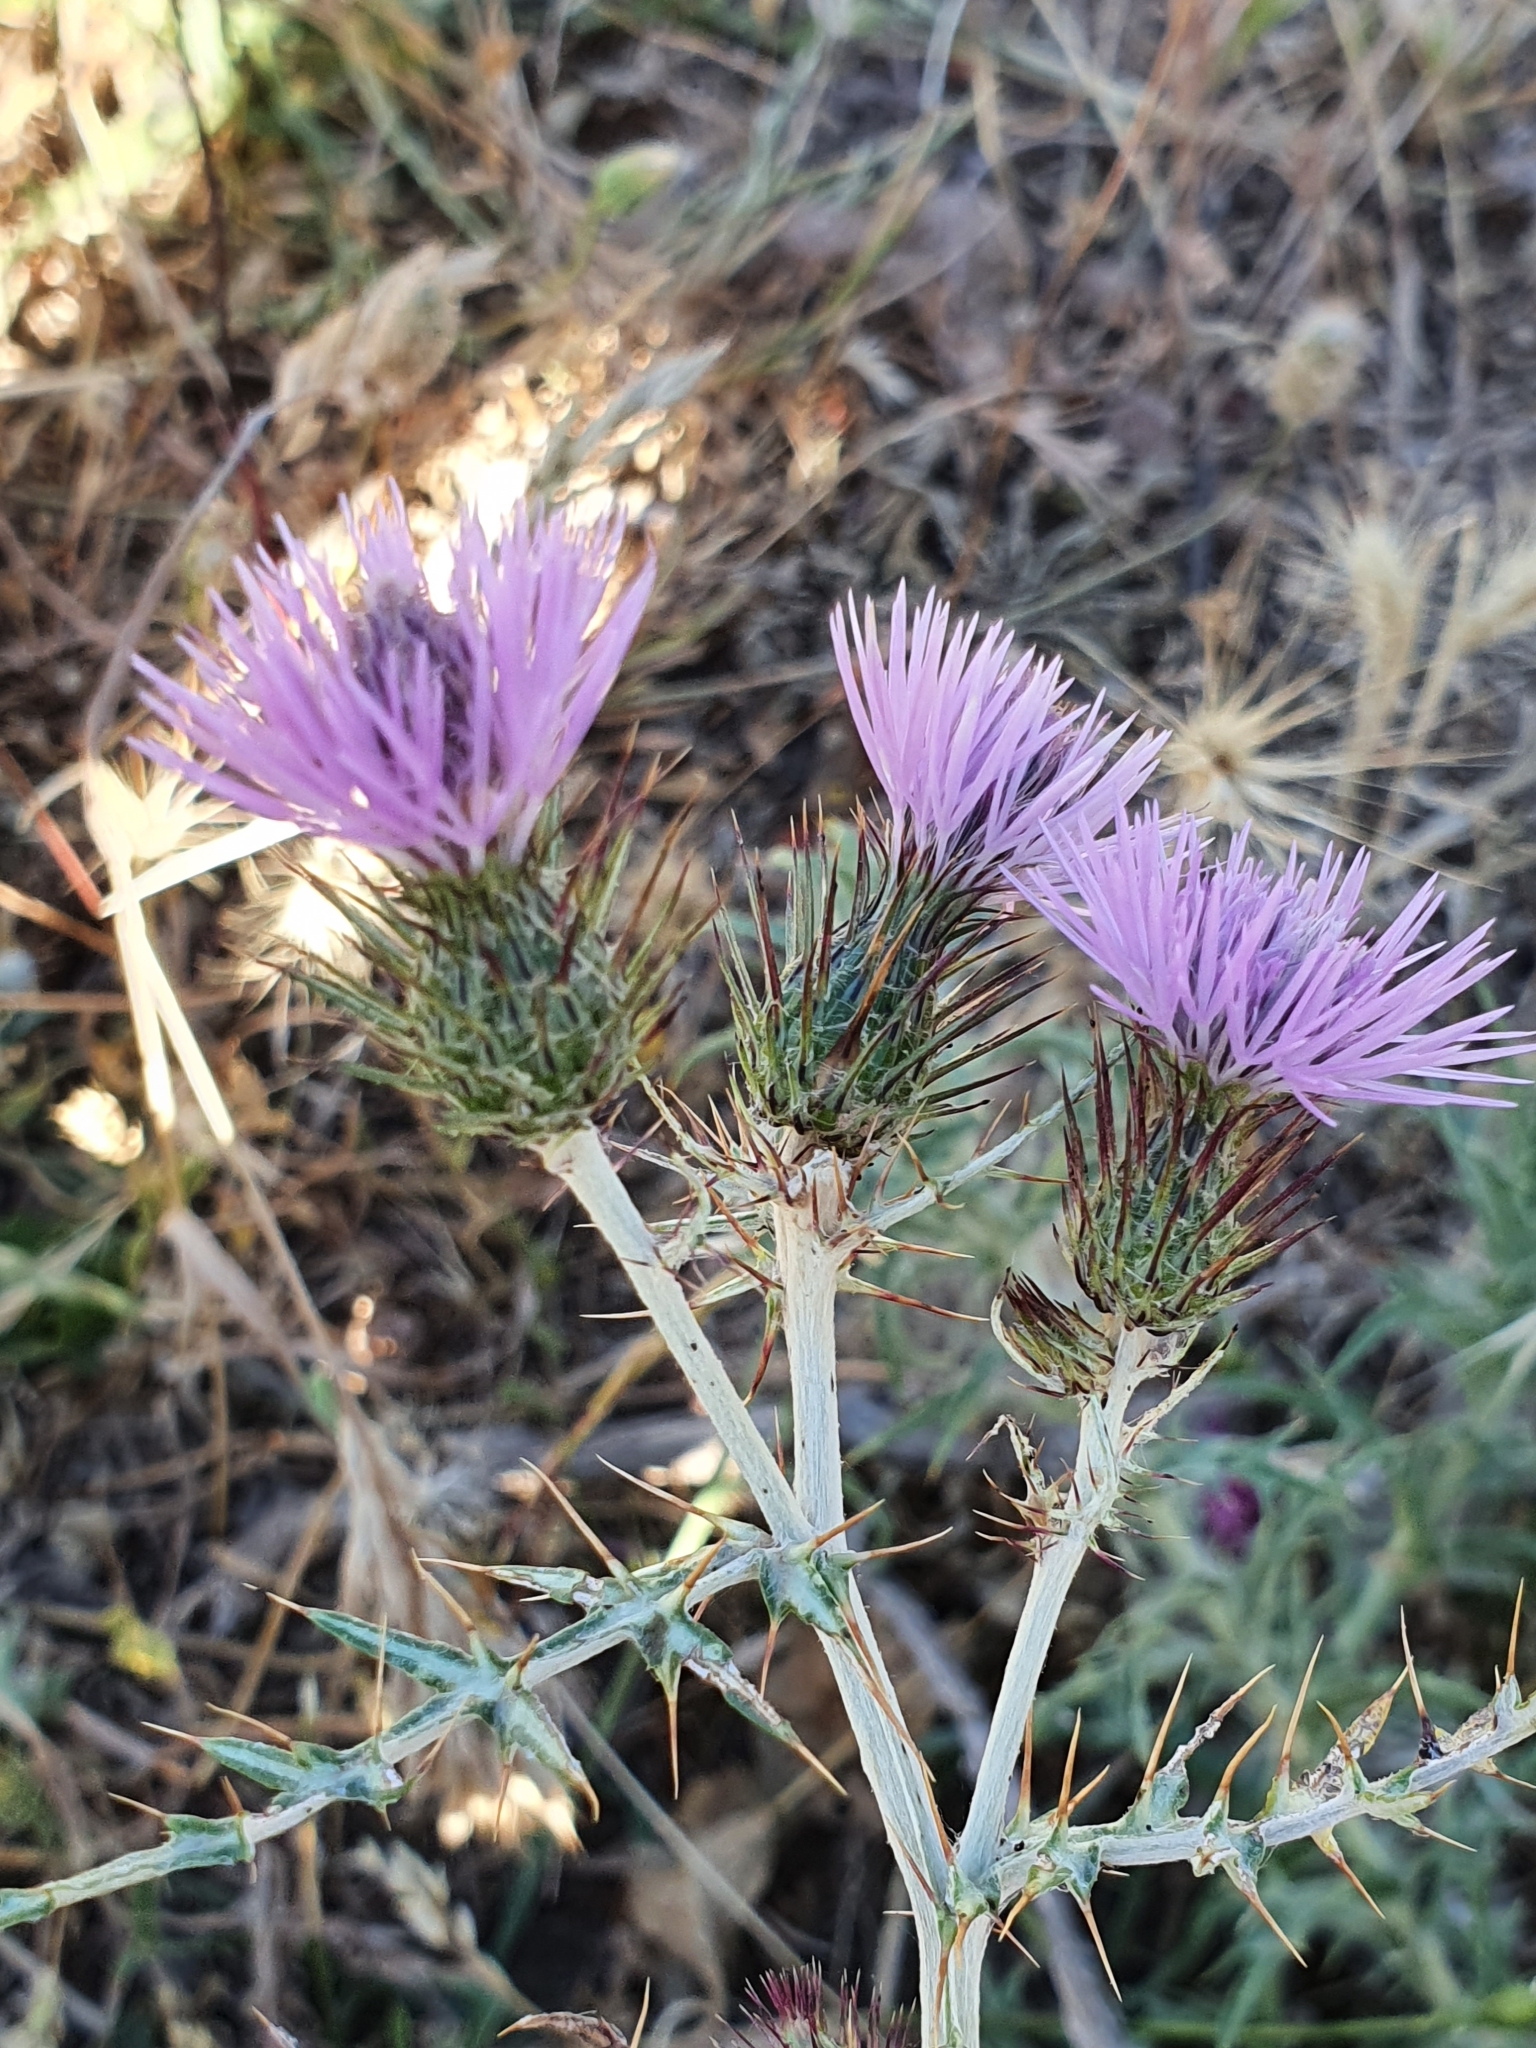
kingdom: Plantae
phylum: Tracheophyta
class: Magnoliopsida
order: Asterales
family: Asteraceae
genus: Galactites
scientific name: Galactites tomentosa
